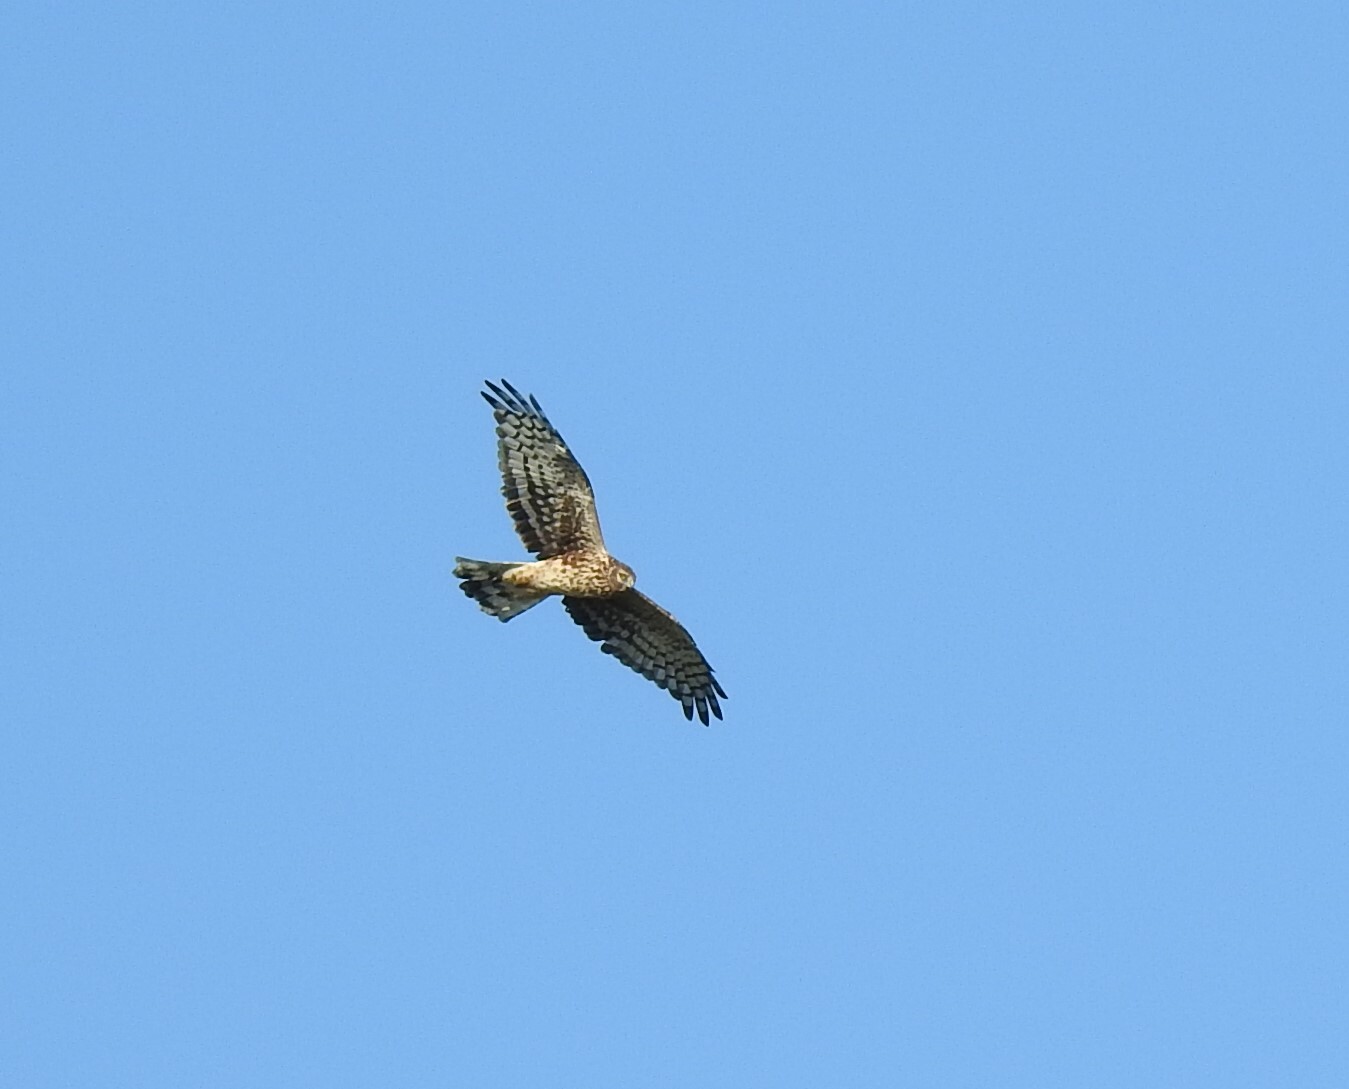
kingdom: Animalia
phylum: Chordata
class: Aves
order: Accipitriformes
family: Accipitridae
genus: Circus
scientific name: Circus cyaneus
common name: Hen harrier
